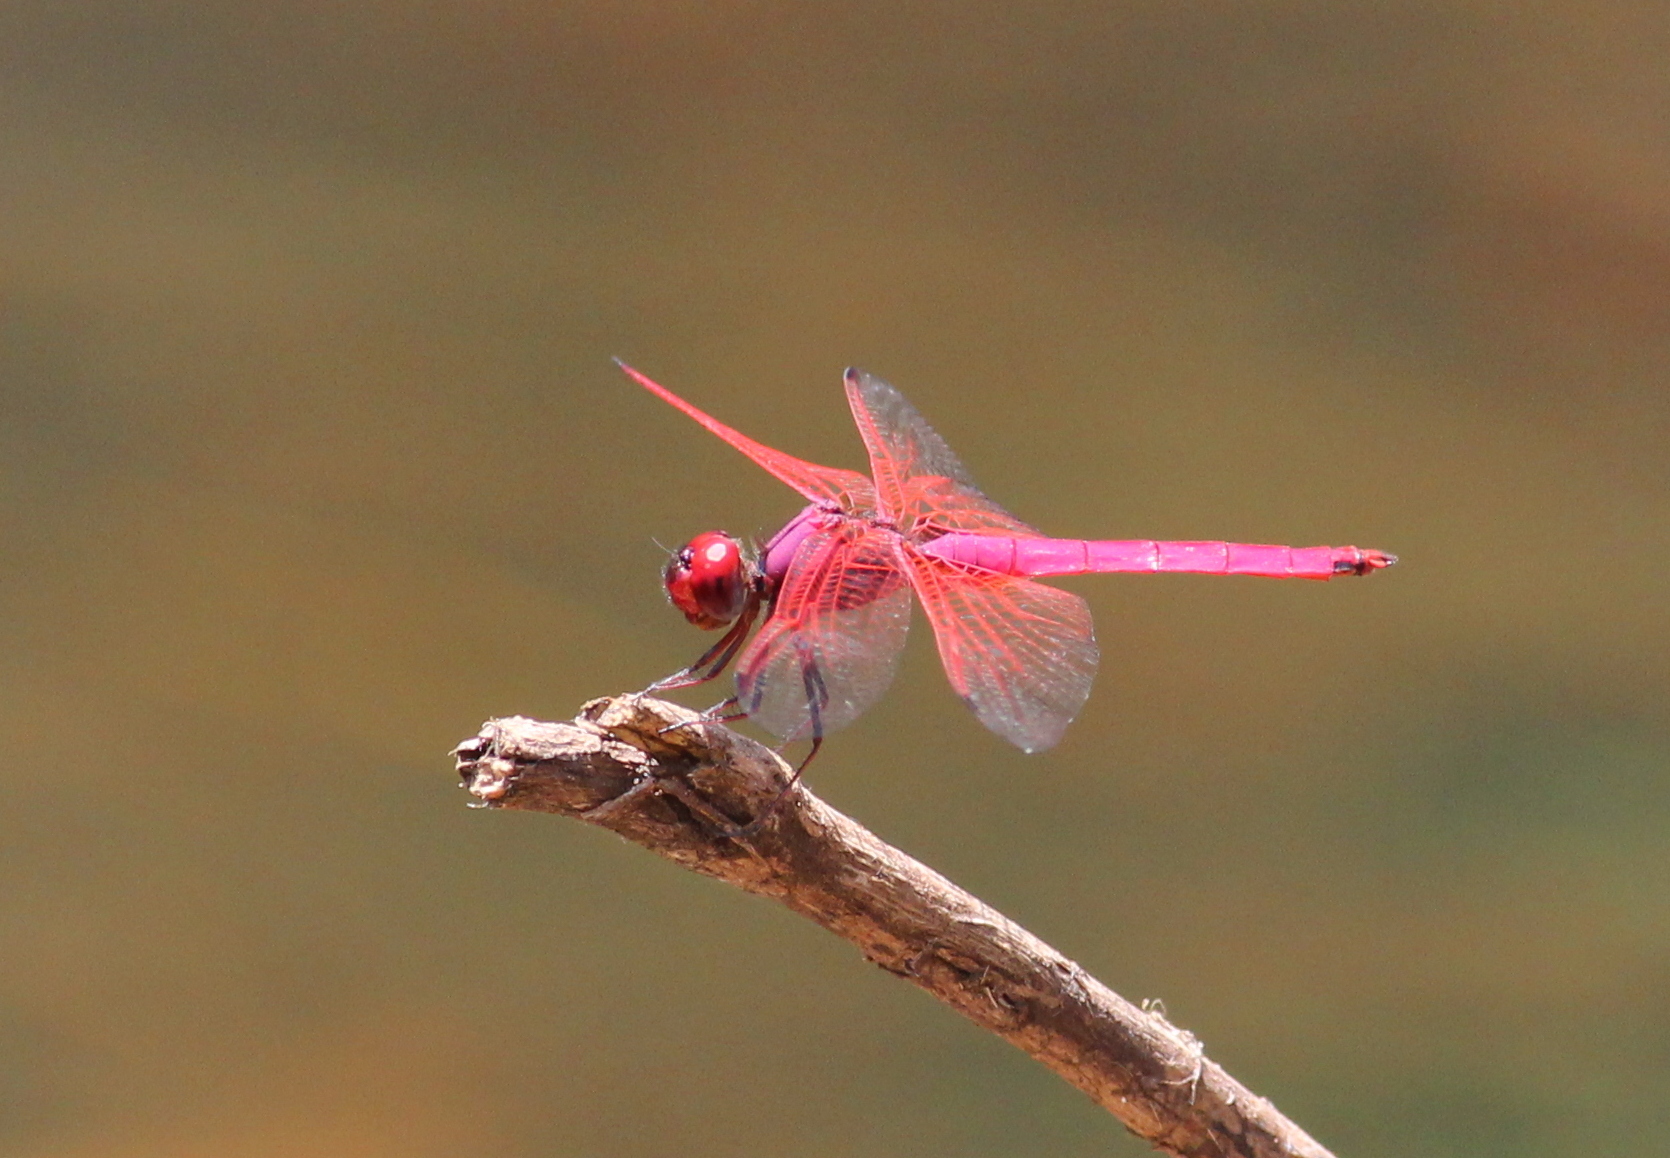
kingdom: Animalia
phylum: Arthropoda
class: Insecta
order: Odonata
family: Libellulidae
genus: Trithemis
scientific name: Trithemis aurora
